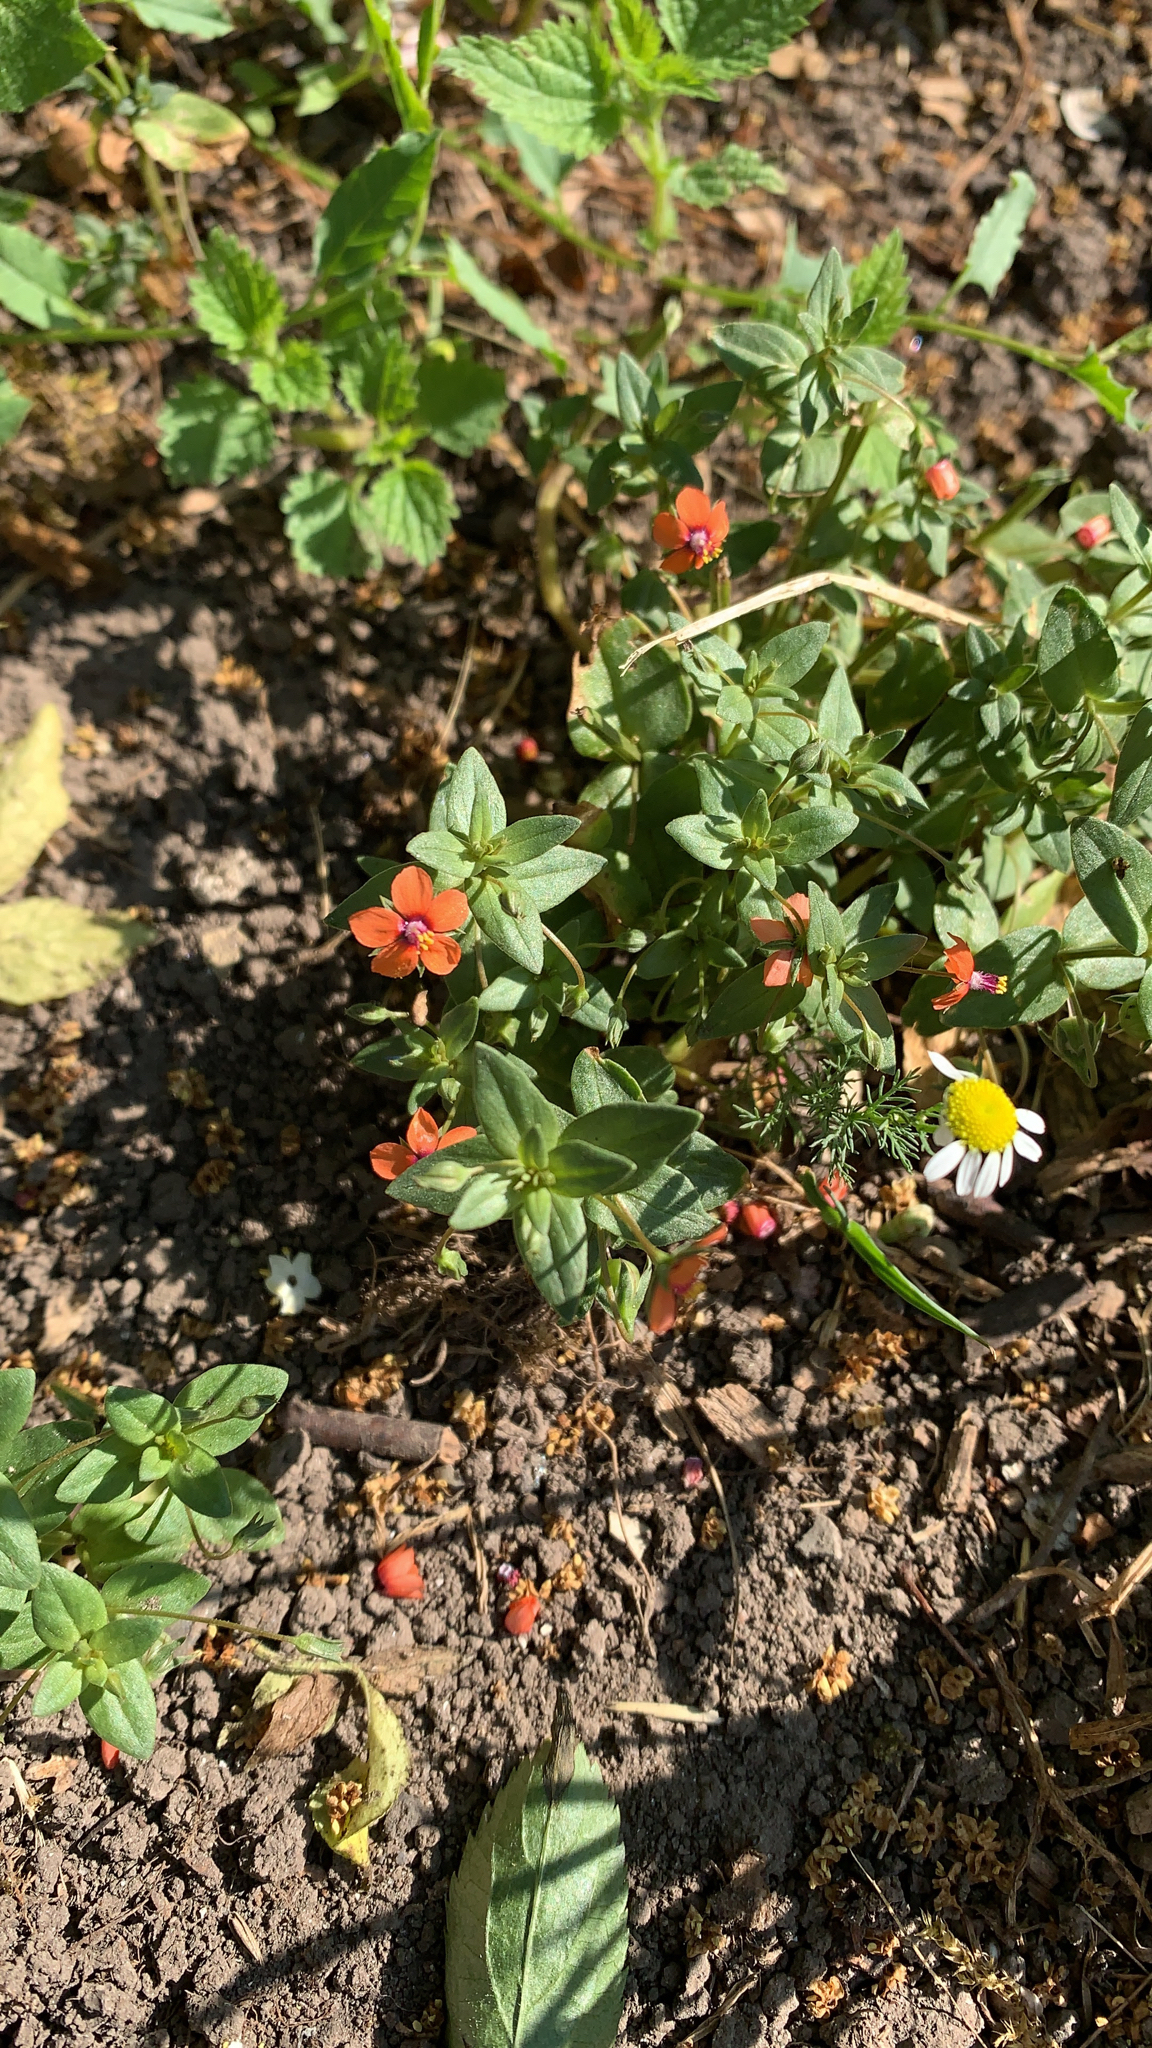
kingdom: Plantae
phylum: Tracheophyta
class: Magnoliopsida
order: Ericales
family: Primulaceae
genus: Lysimachia
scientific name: Lysimachia arvensis
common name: Scarlet pimpernel
